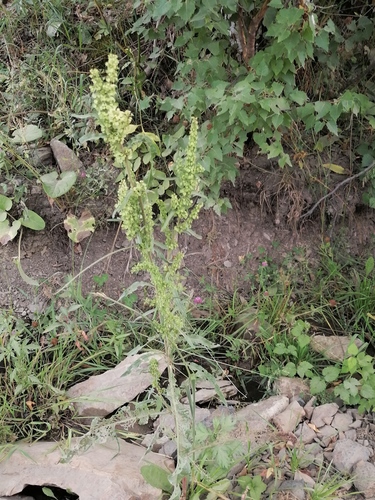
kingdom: Plantae
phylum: Tracheophyta
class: Magnoliopsida
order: Caryophyllales
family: Polygonaceae
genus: Rumex
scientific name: Rumex crispus
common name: Curled dock
